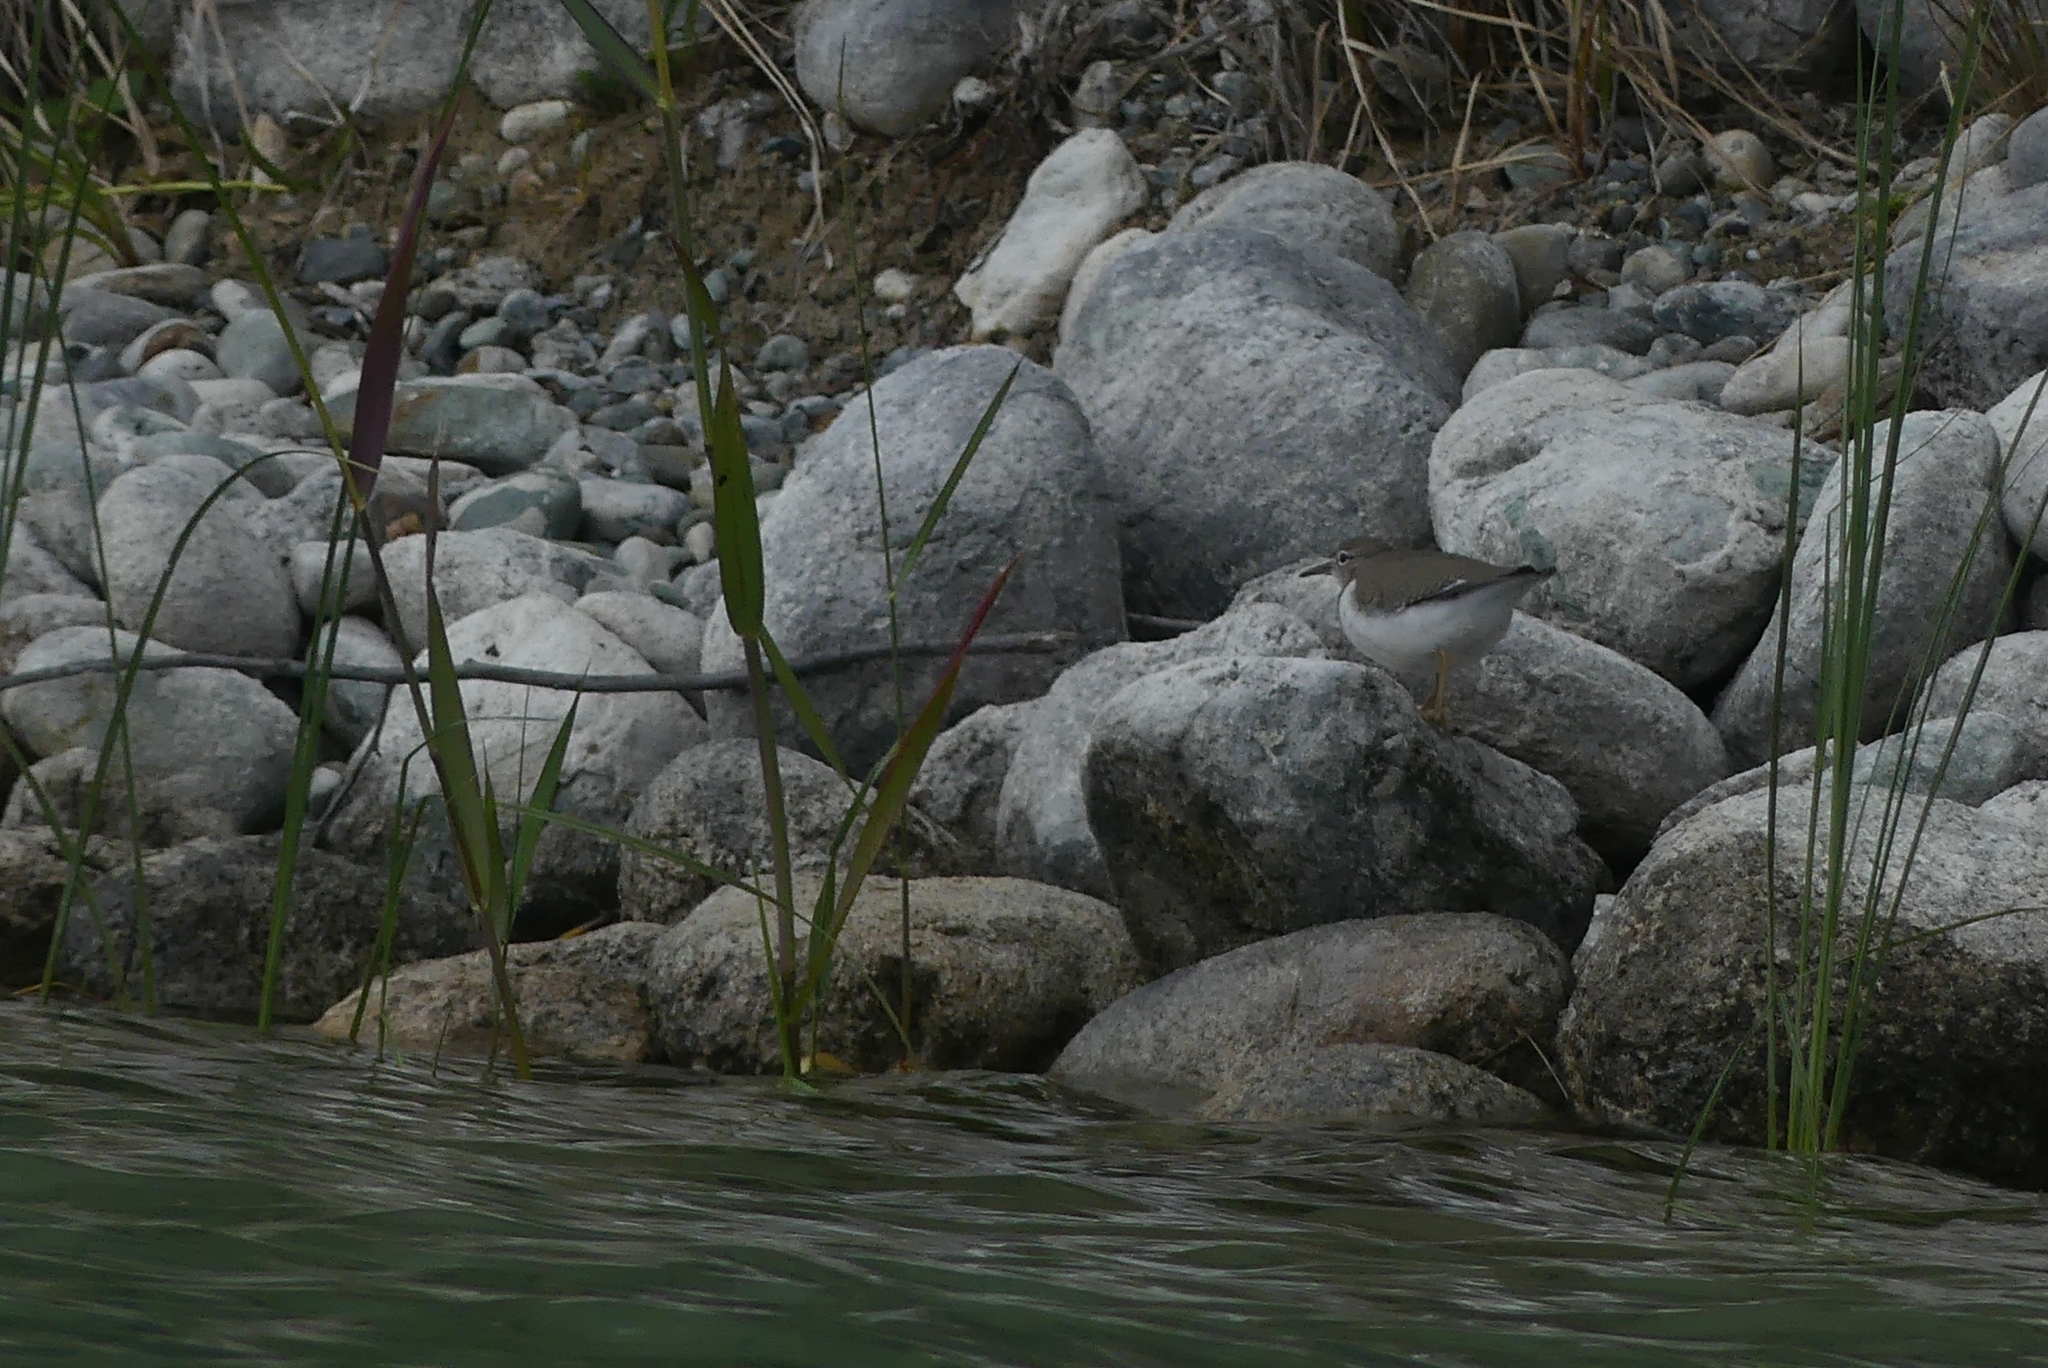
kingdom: Animalia
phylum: Chordata
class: Aves
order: Charadriiformes
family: Scolopacidae
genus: Actitis
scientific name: Actitis macularius
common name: Spotted sandpiper
